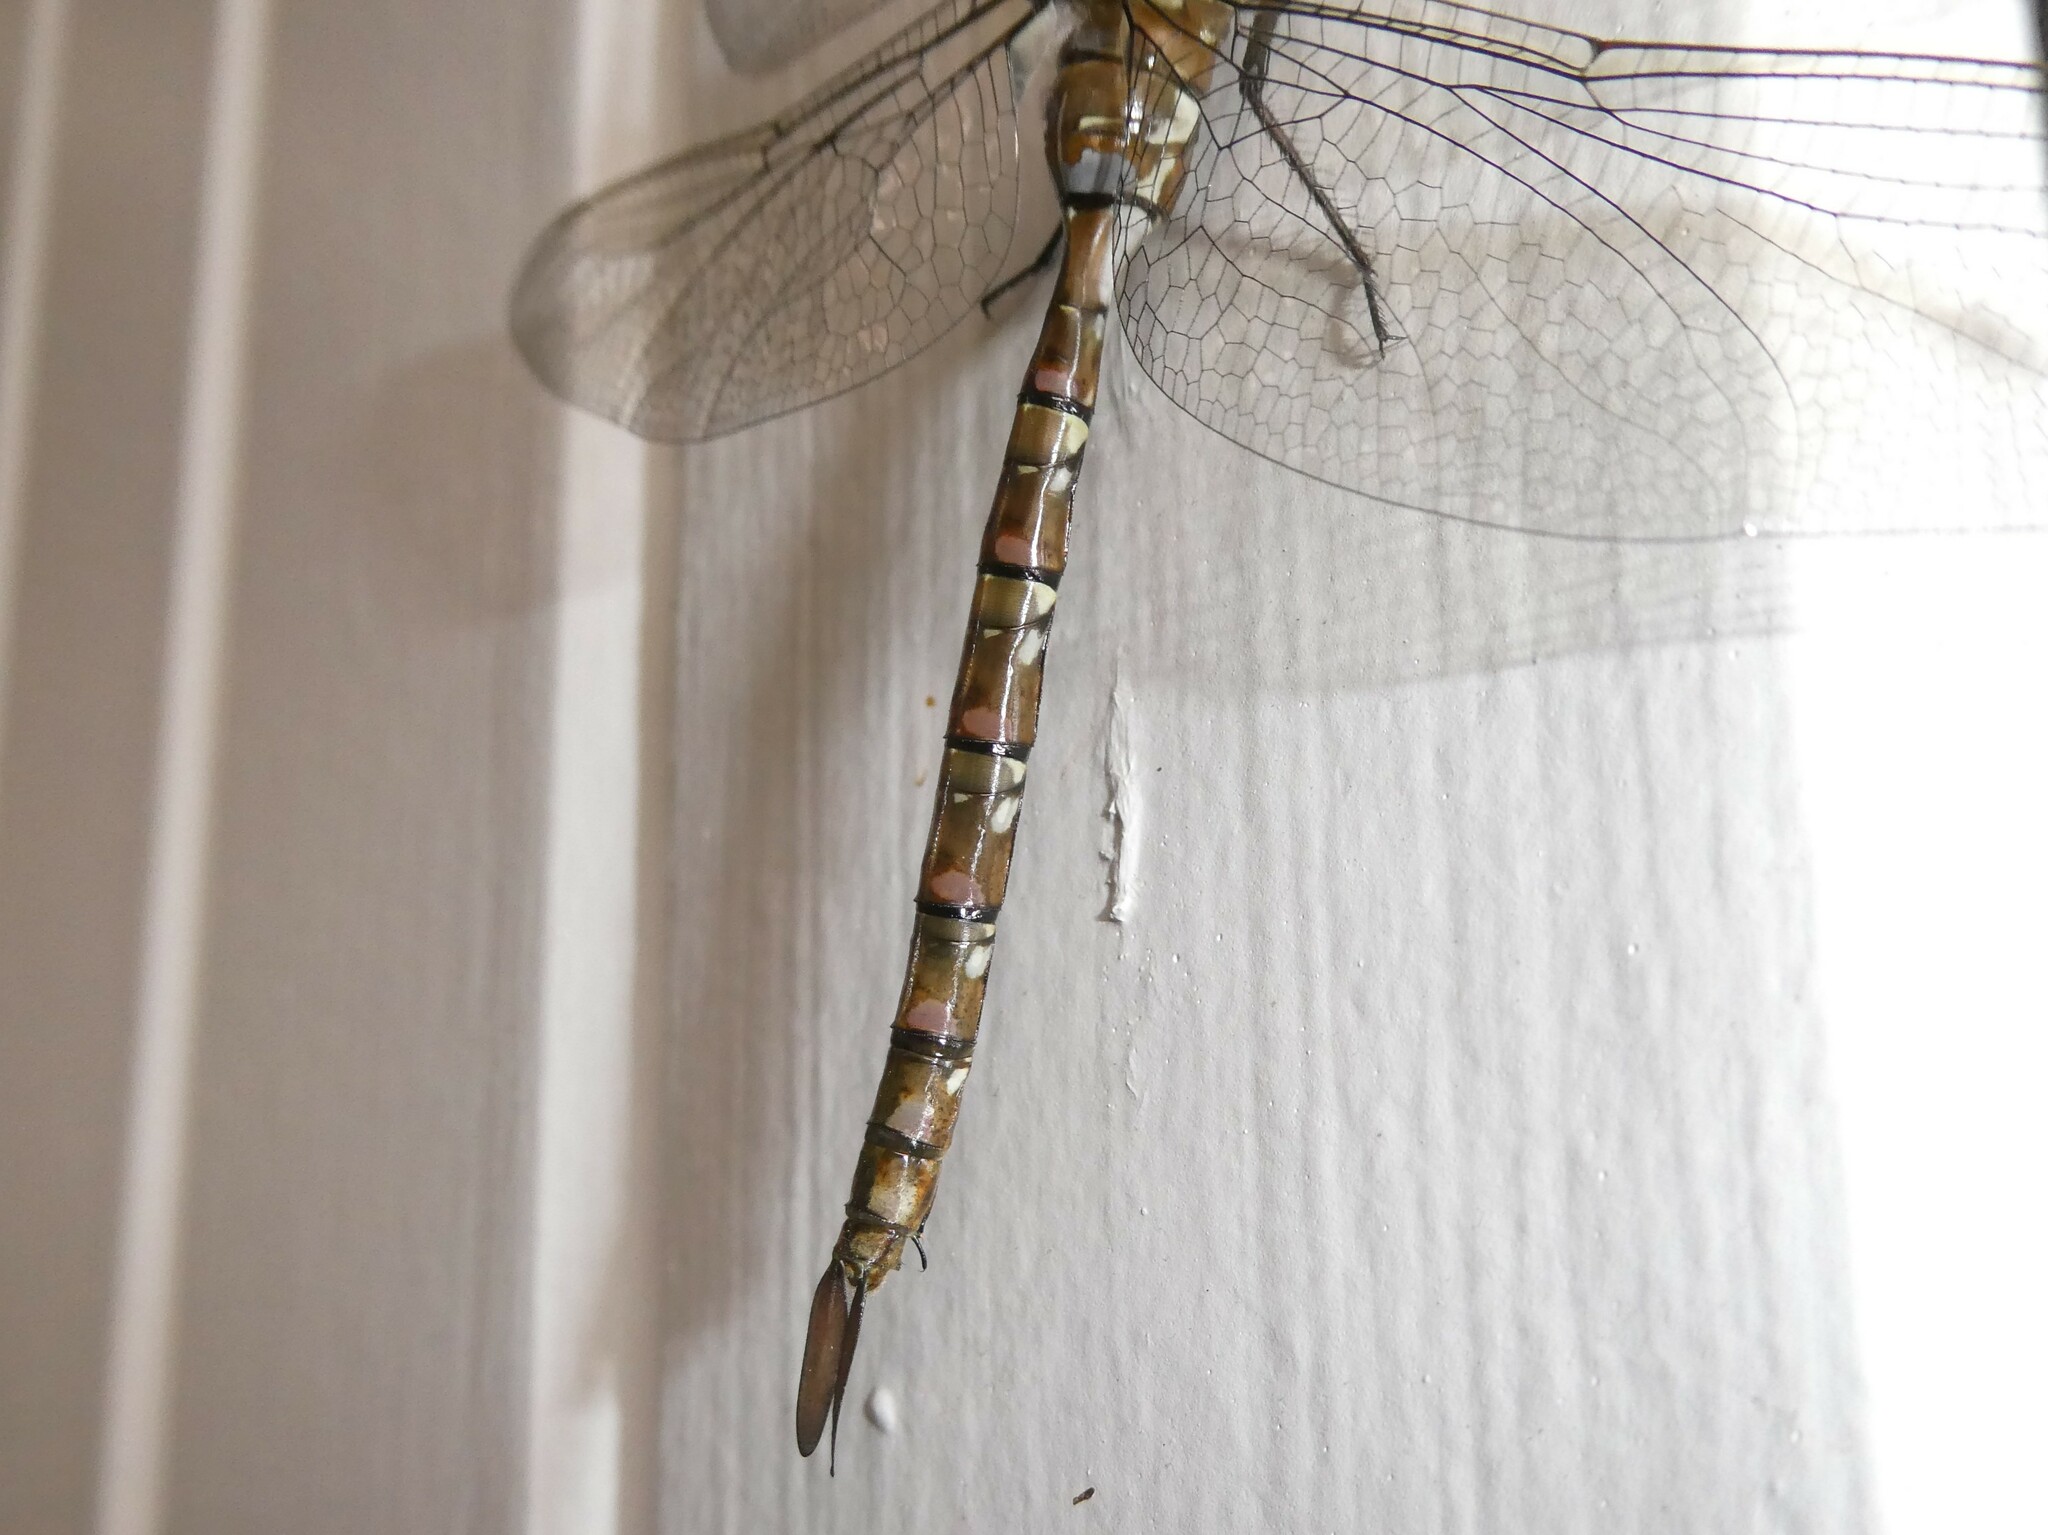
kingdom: Animalia
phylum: Arthropoda
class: Insecta
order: Odonata
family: Aeshnidae
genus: Aeshna
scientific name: Aeshna tuberculifera
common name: Aeschne à tubercules
